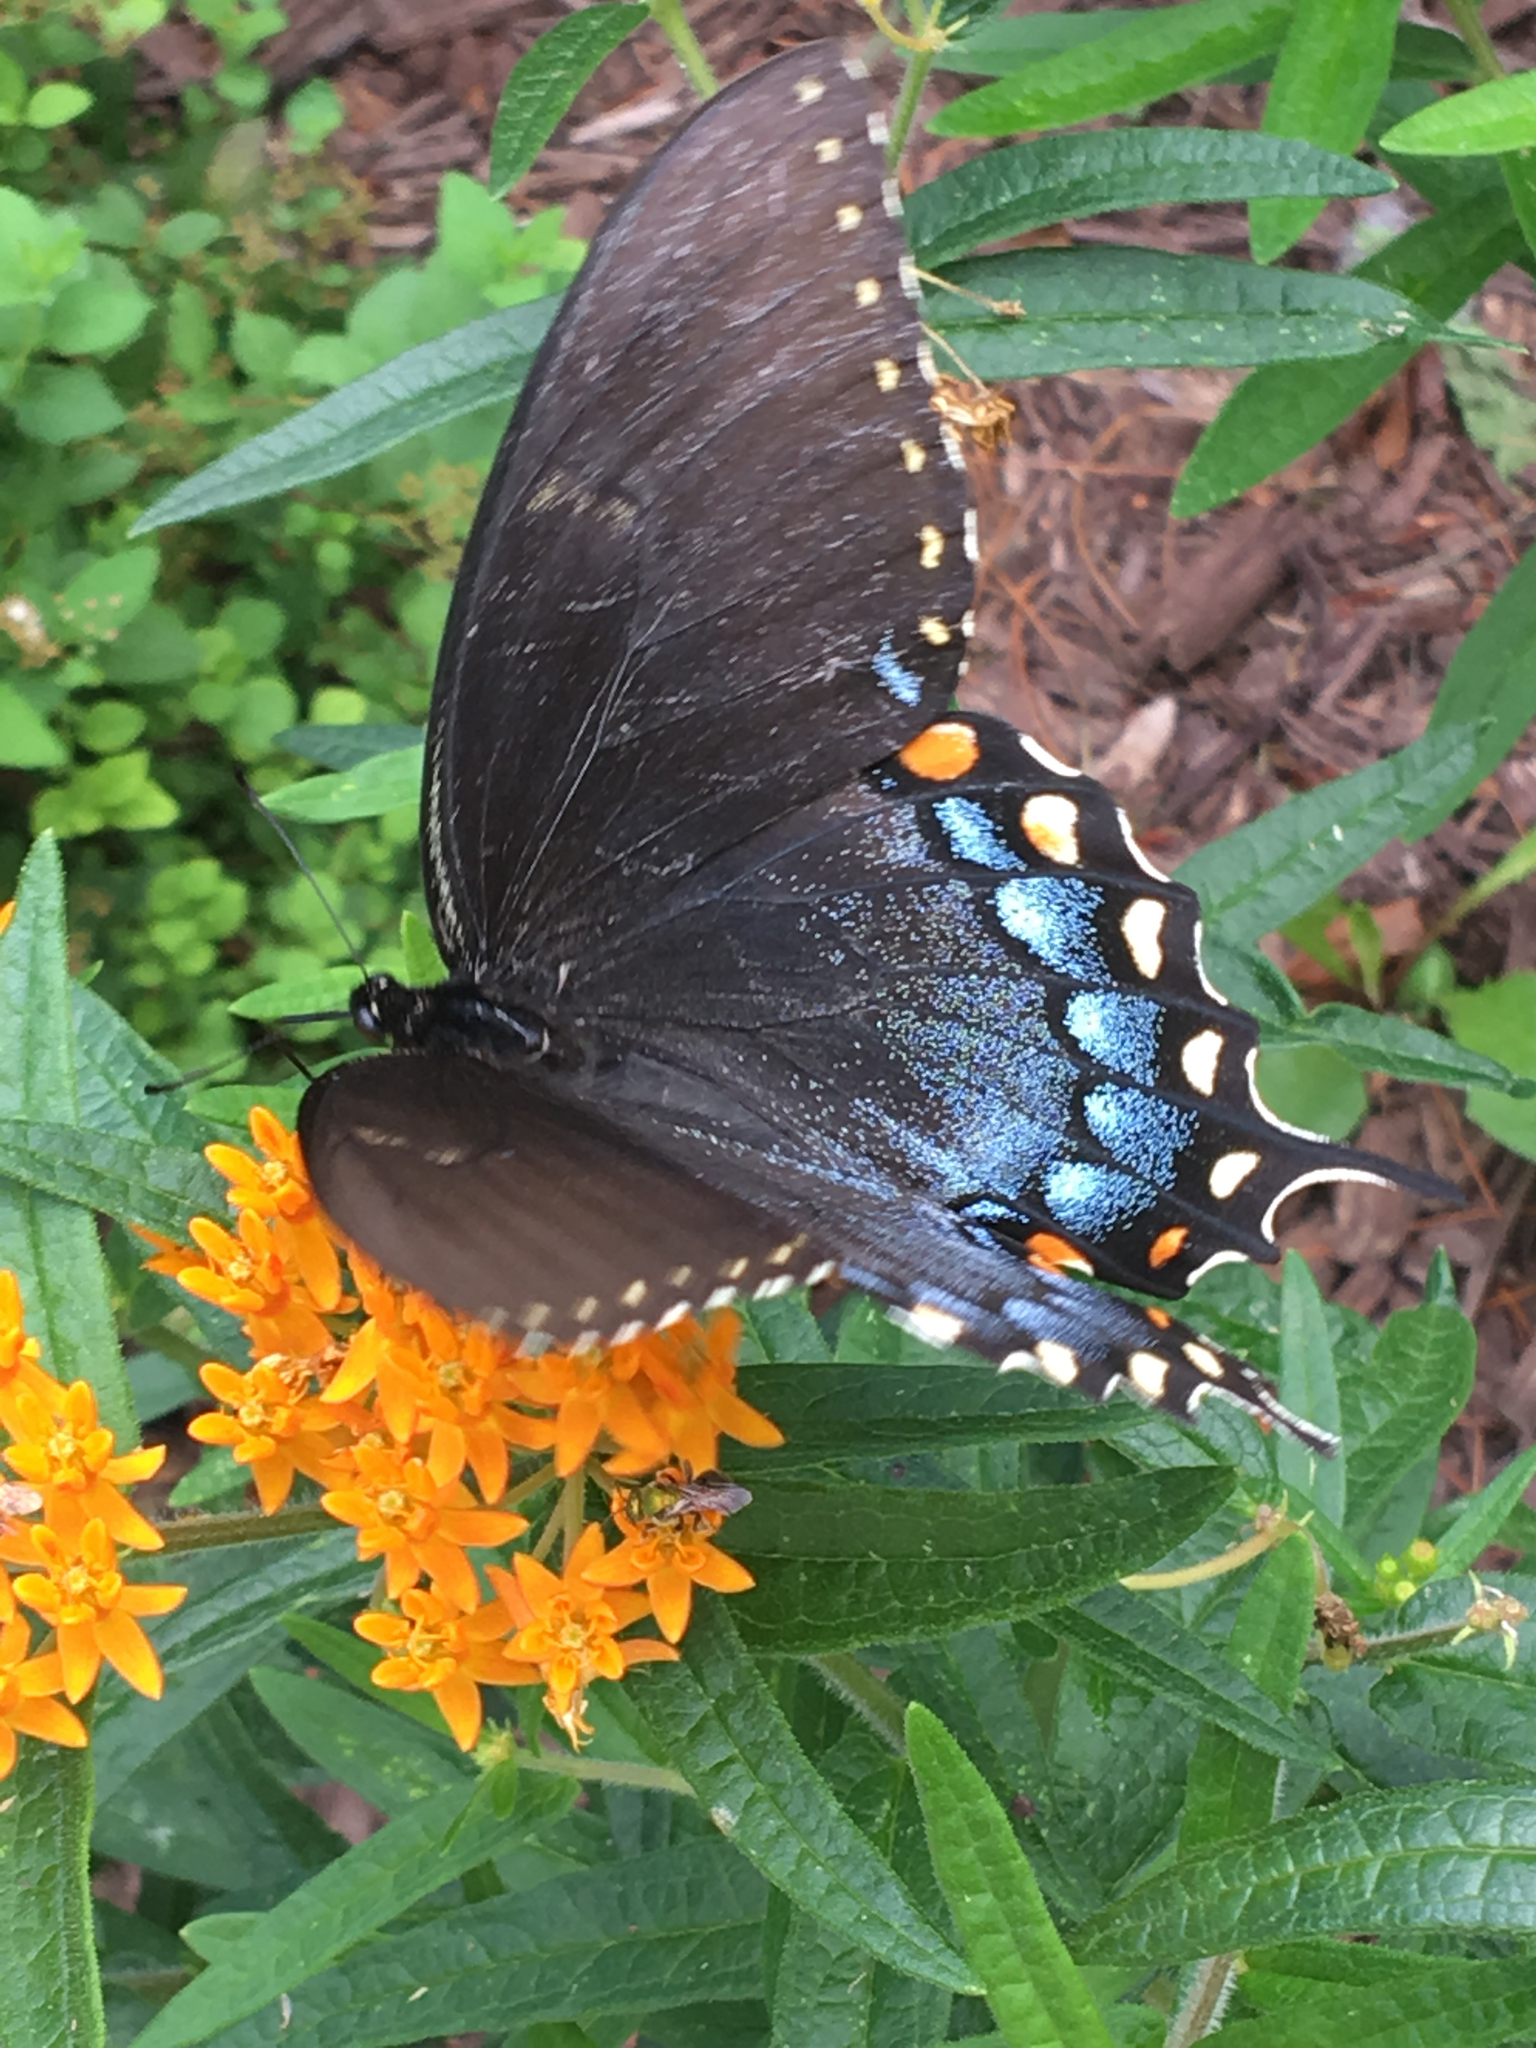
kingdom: Animalia
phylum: Arthropoda
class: Insecta
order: Lepidoptera
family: Papilionidae
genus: Papilio
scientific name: Papilio glaucus
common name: Tiger swallowtail
